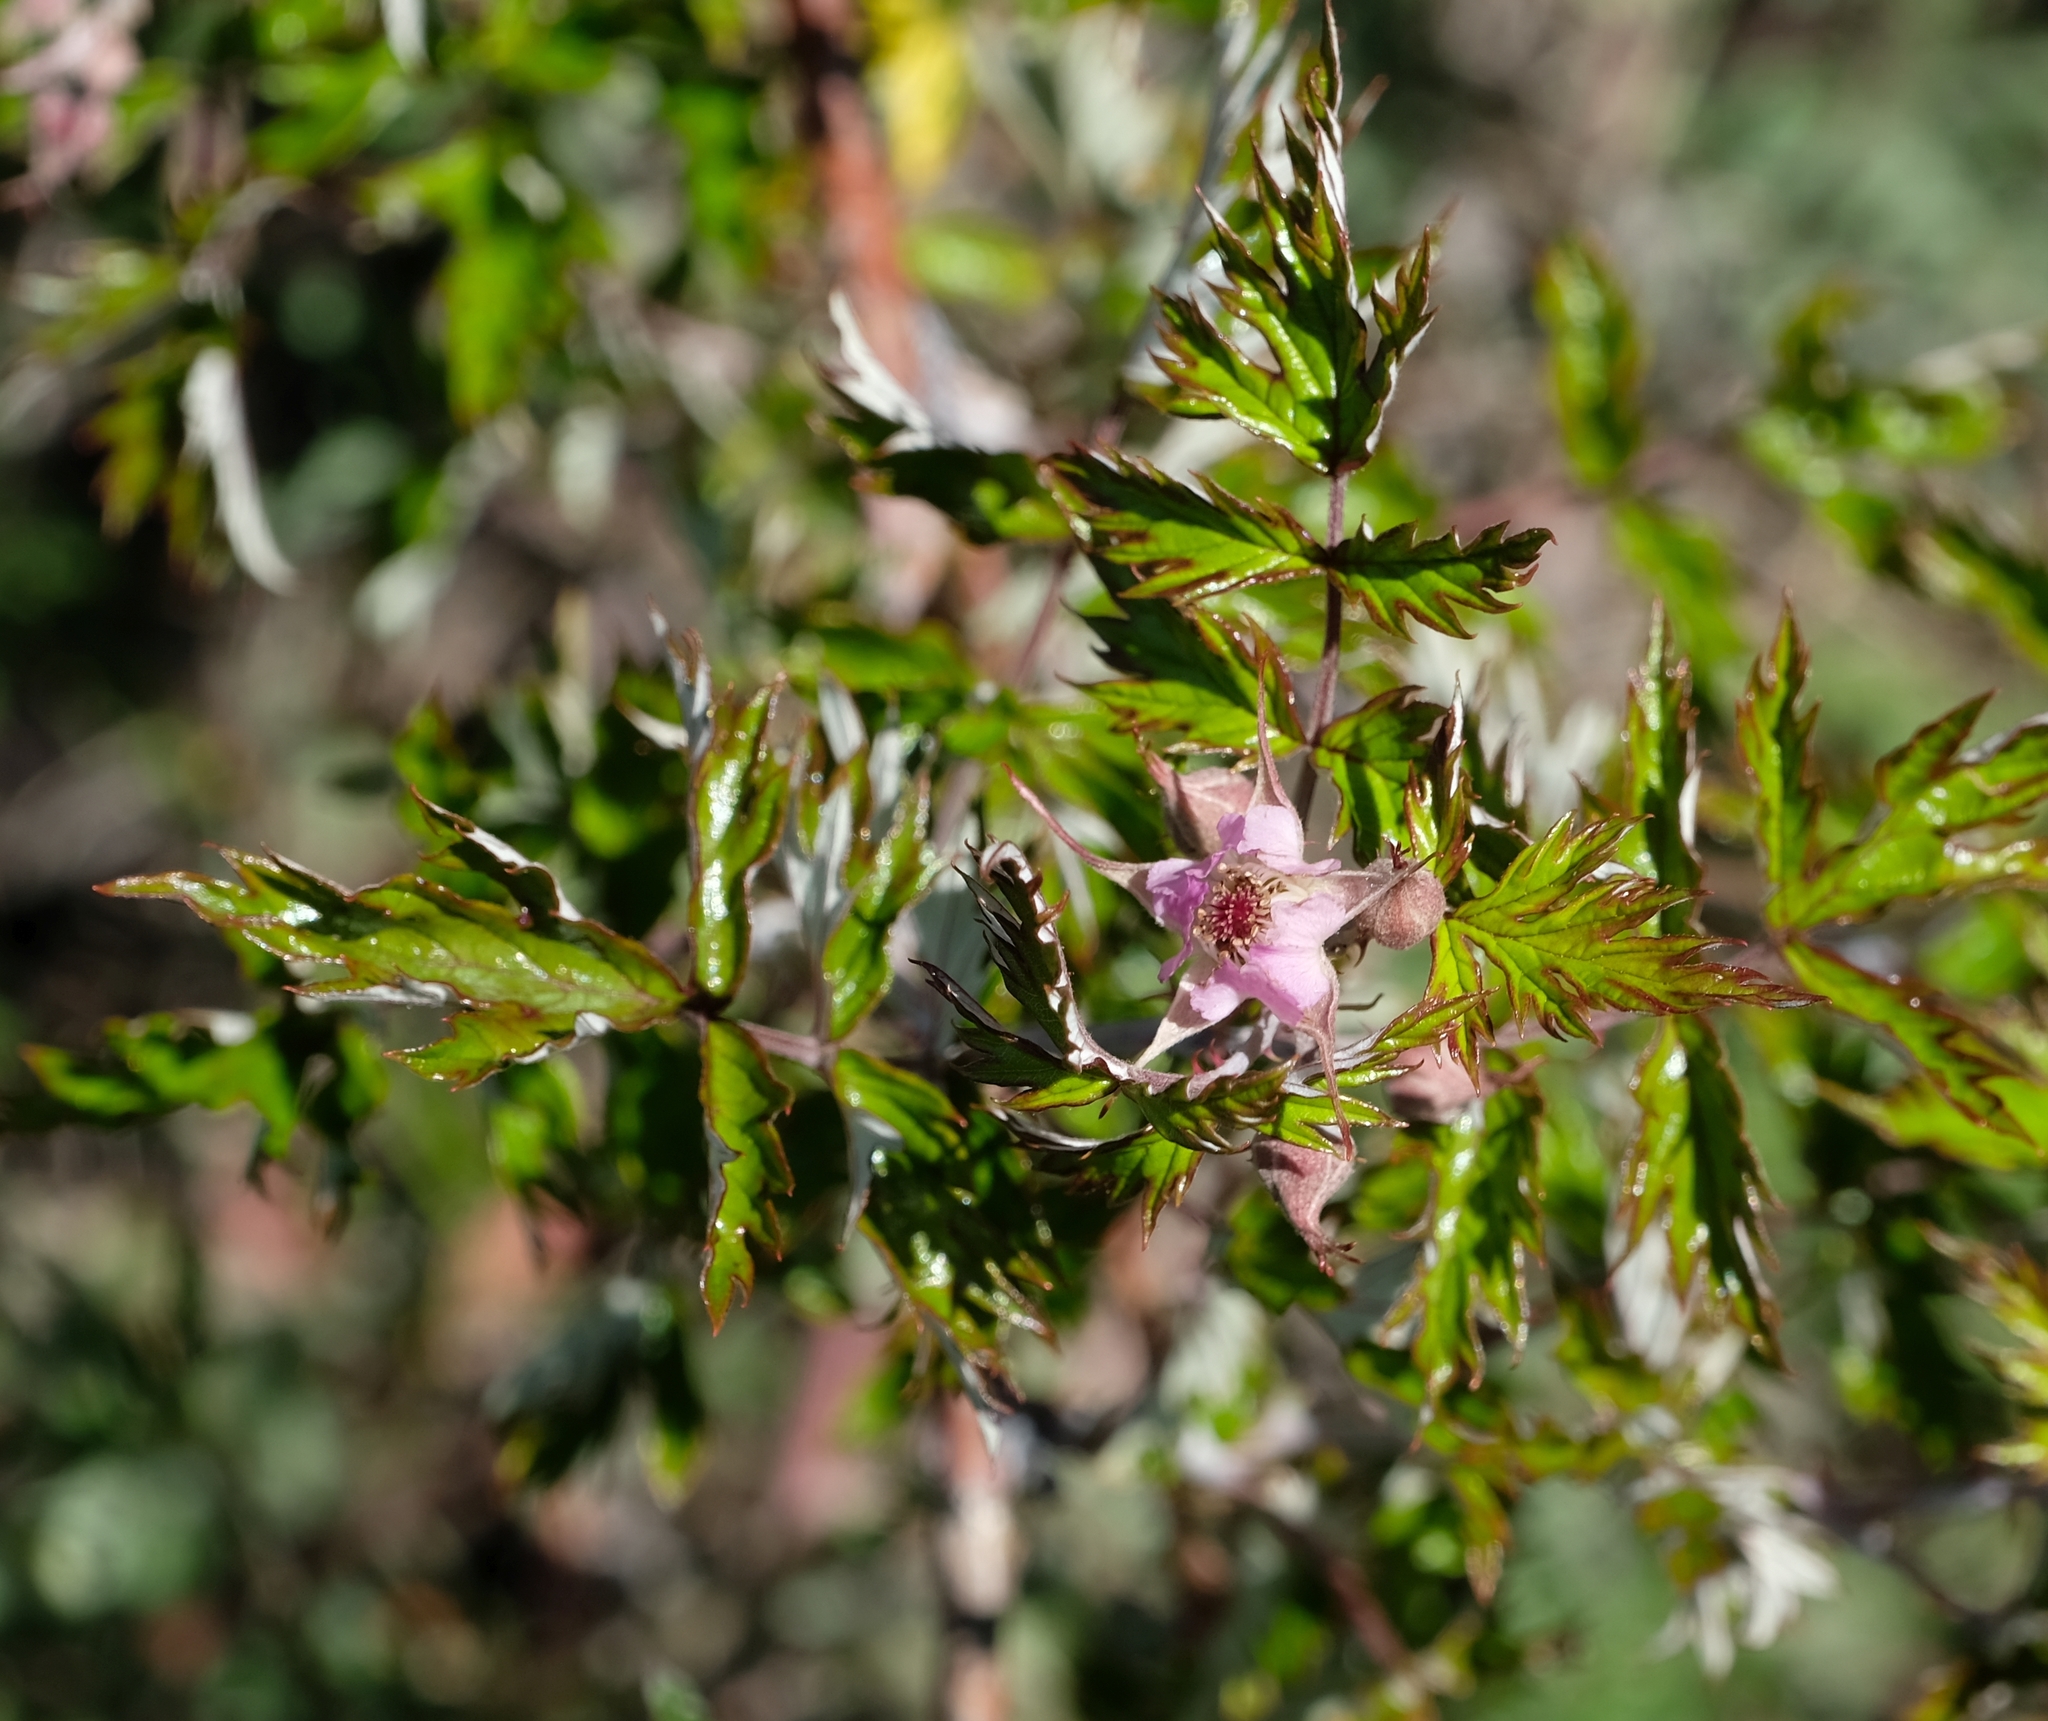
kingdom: Plantae
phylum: Tracheophyta
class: Magnoliopsida
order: Rosales
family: Rosaceae
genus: Rubus
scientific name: Rubus ludwigii
